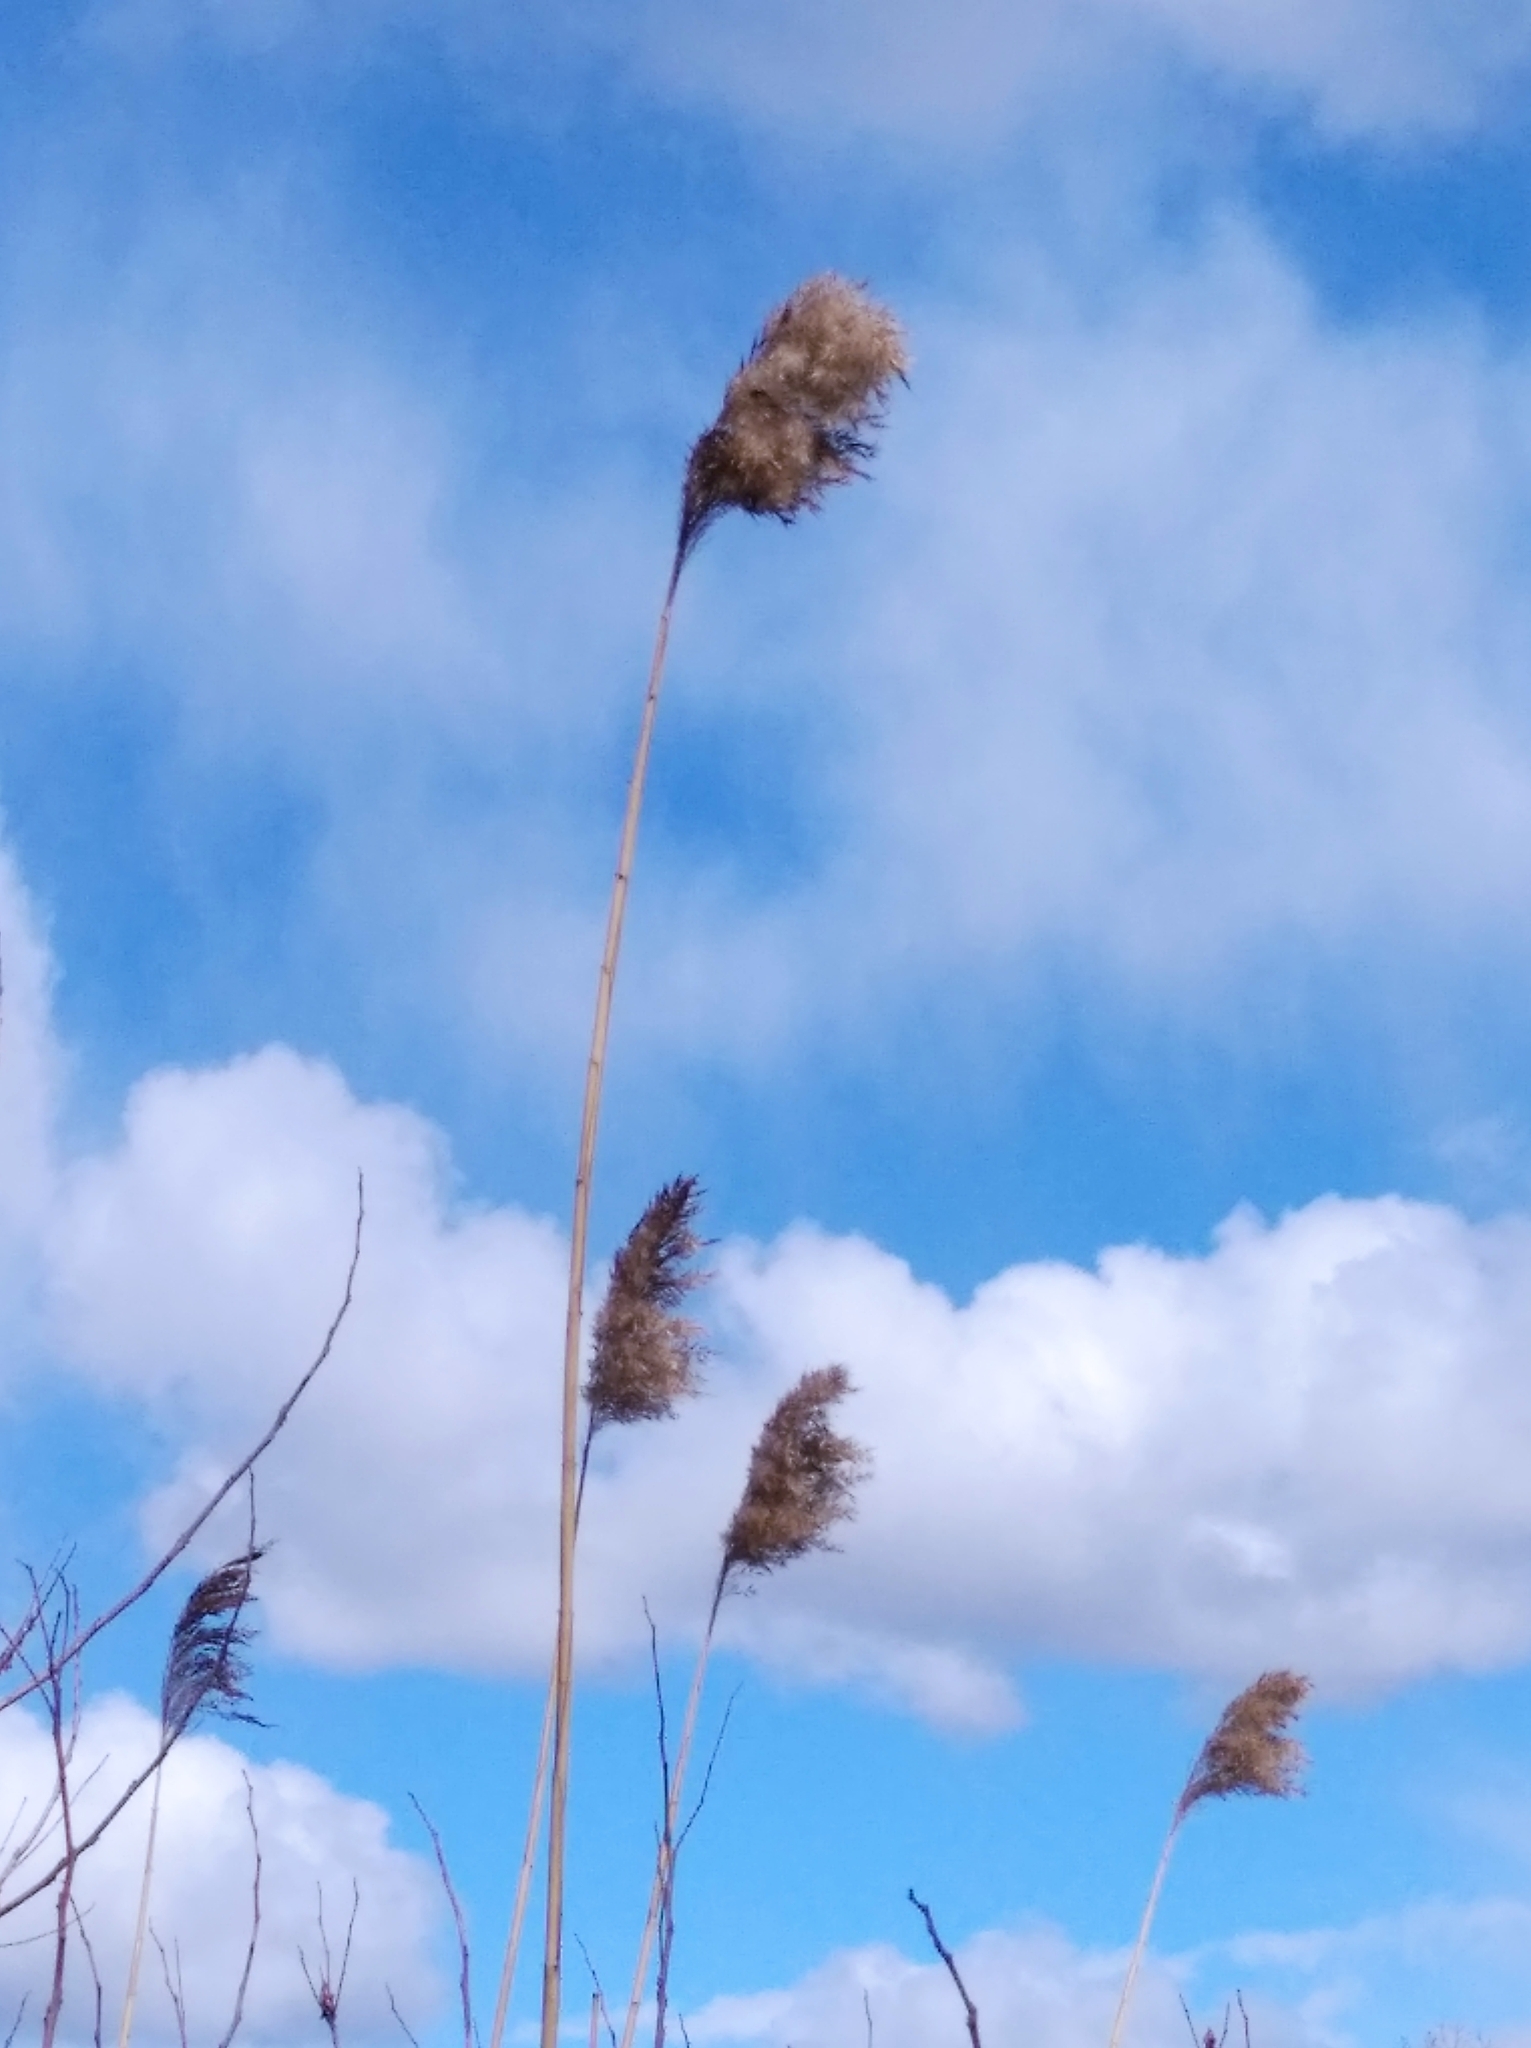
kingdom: Plantae
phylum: Tracheophyta
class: Liliopsida
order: Poales
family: Poaceae
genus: Phragmites
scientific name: Phragmites australis
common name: Common reed
